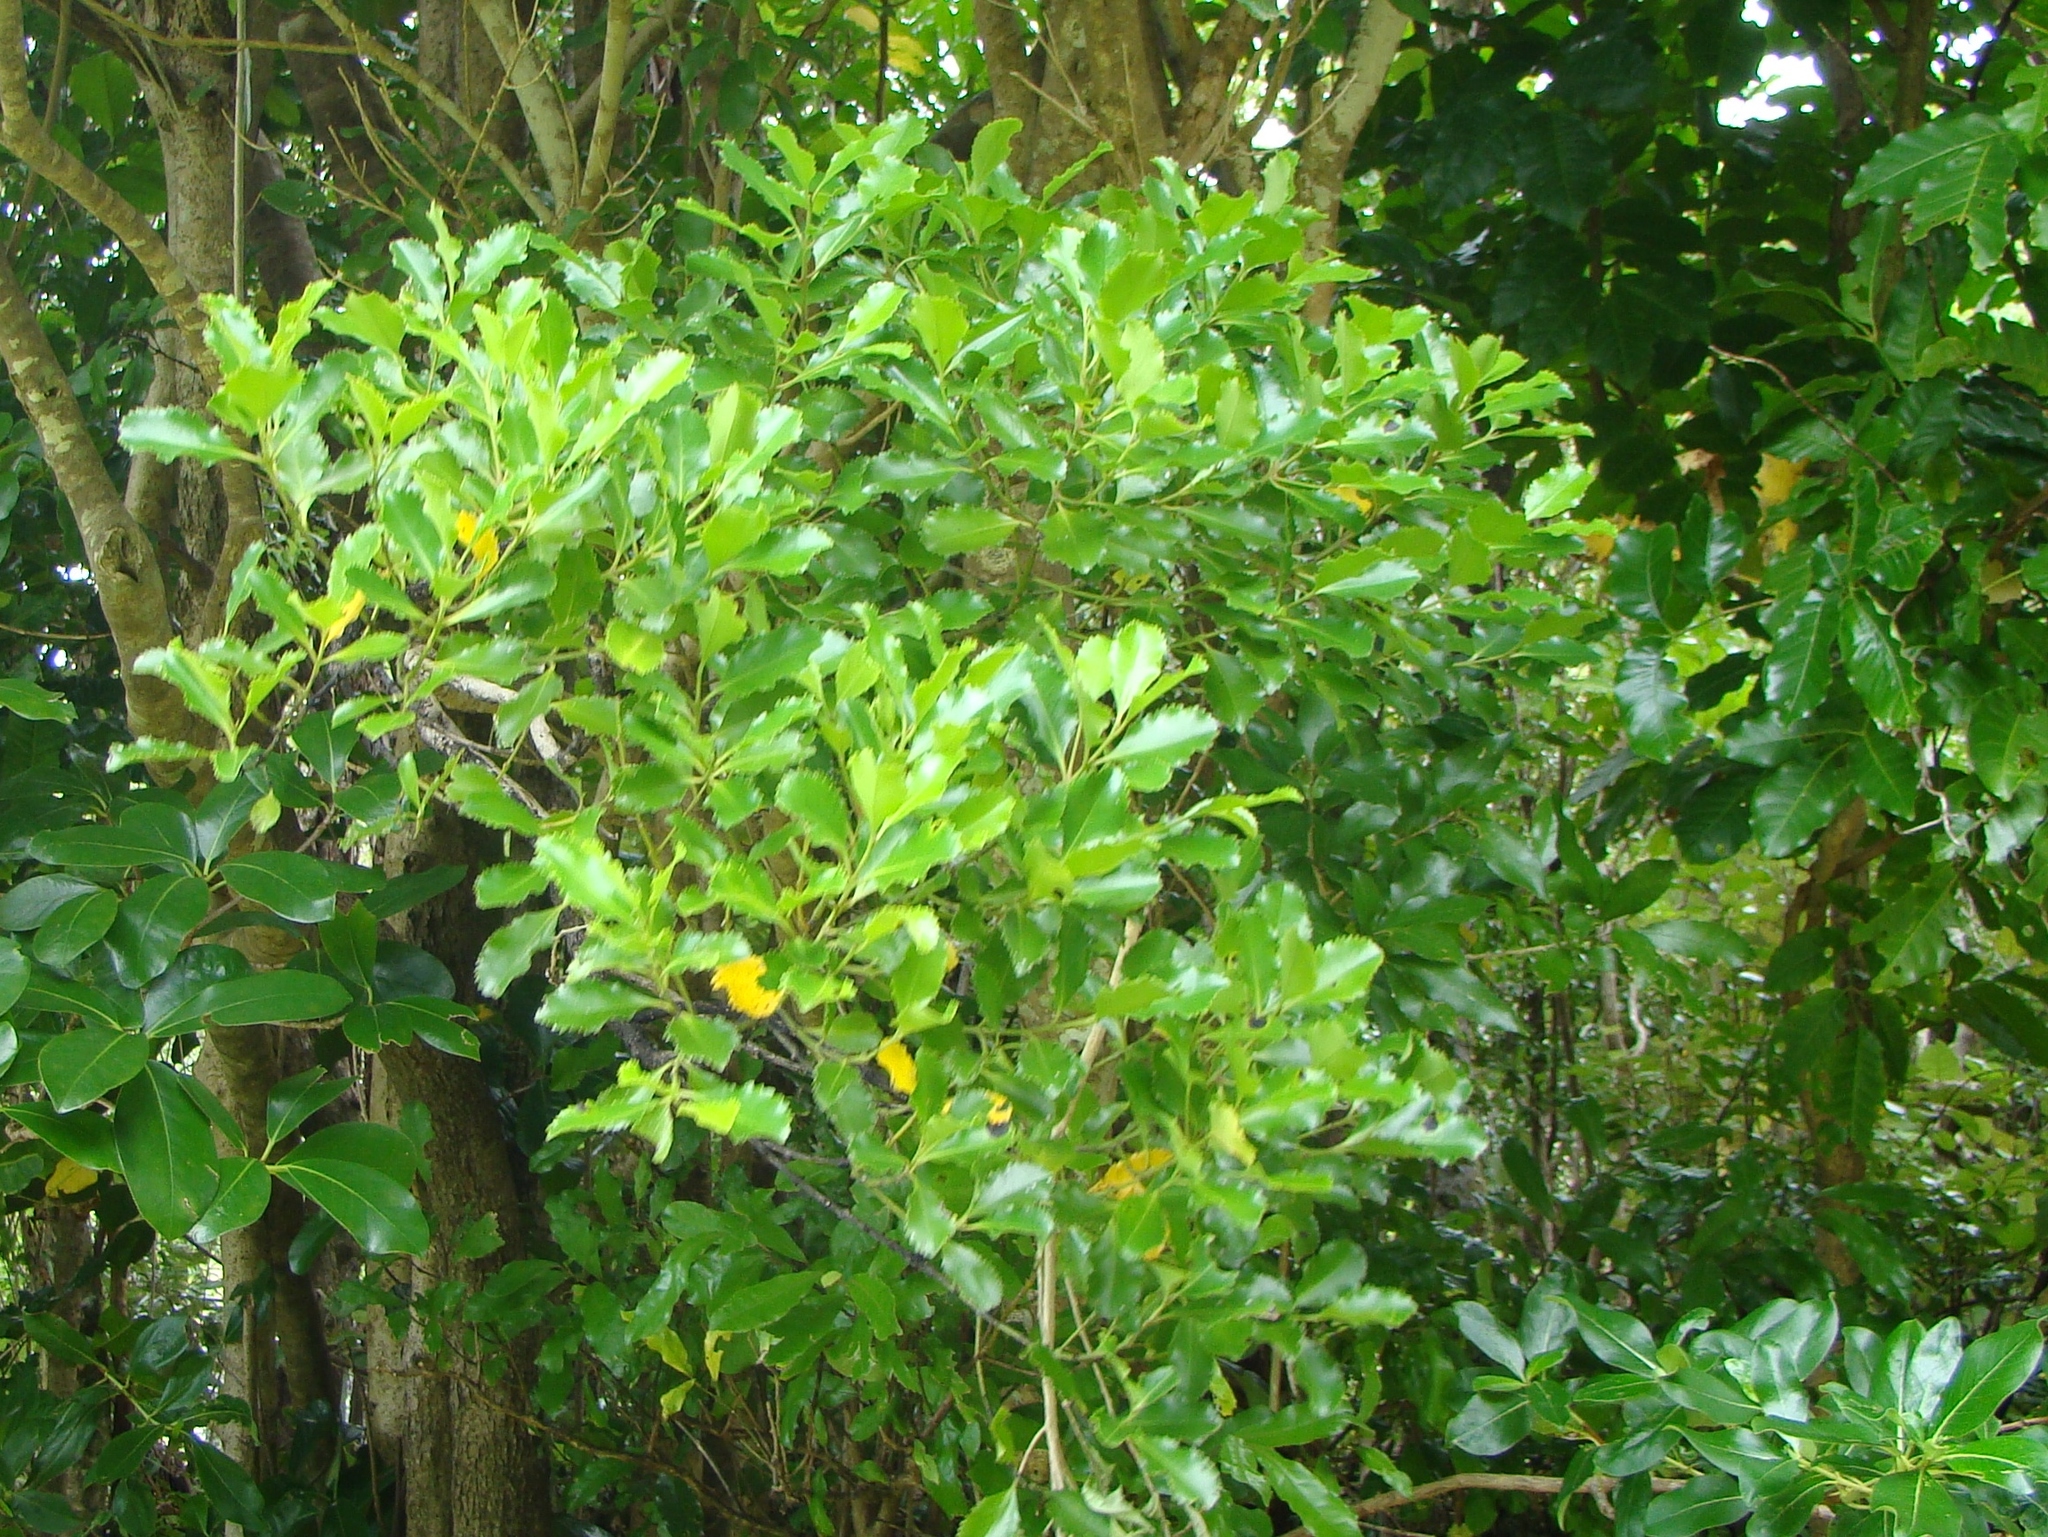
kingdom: Plantae
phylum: Tracheophyta
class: Magnoliopsida
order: Laurales
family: Atherospermataceae
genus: Laurelia
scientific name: Laurelia novae-zelandiae
